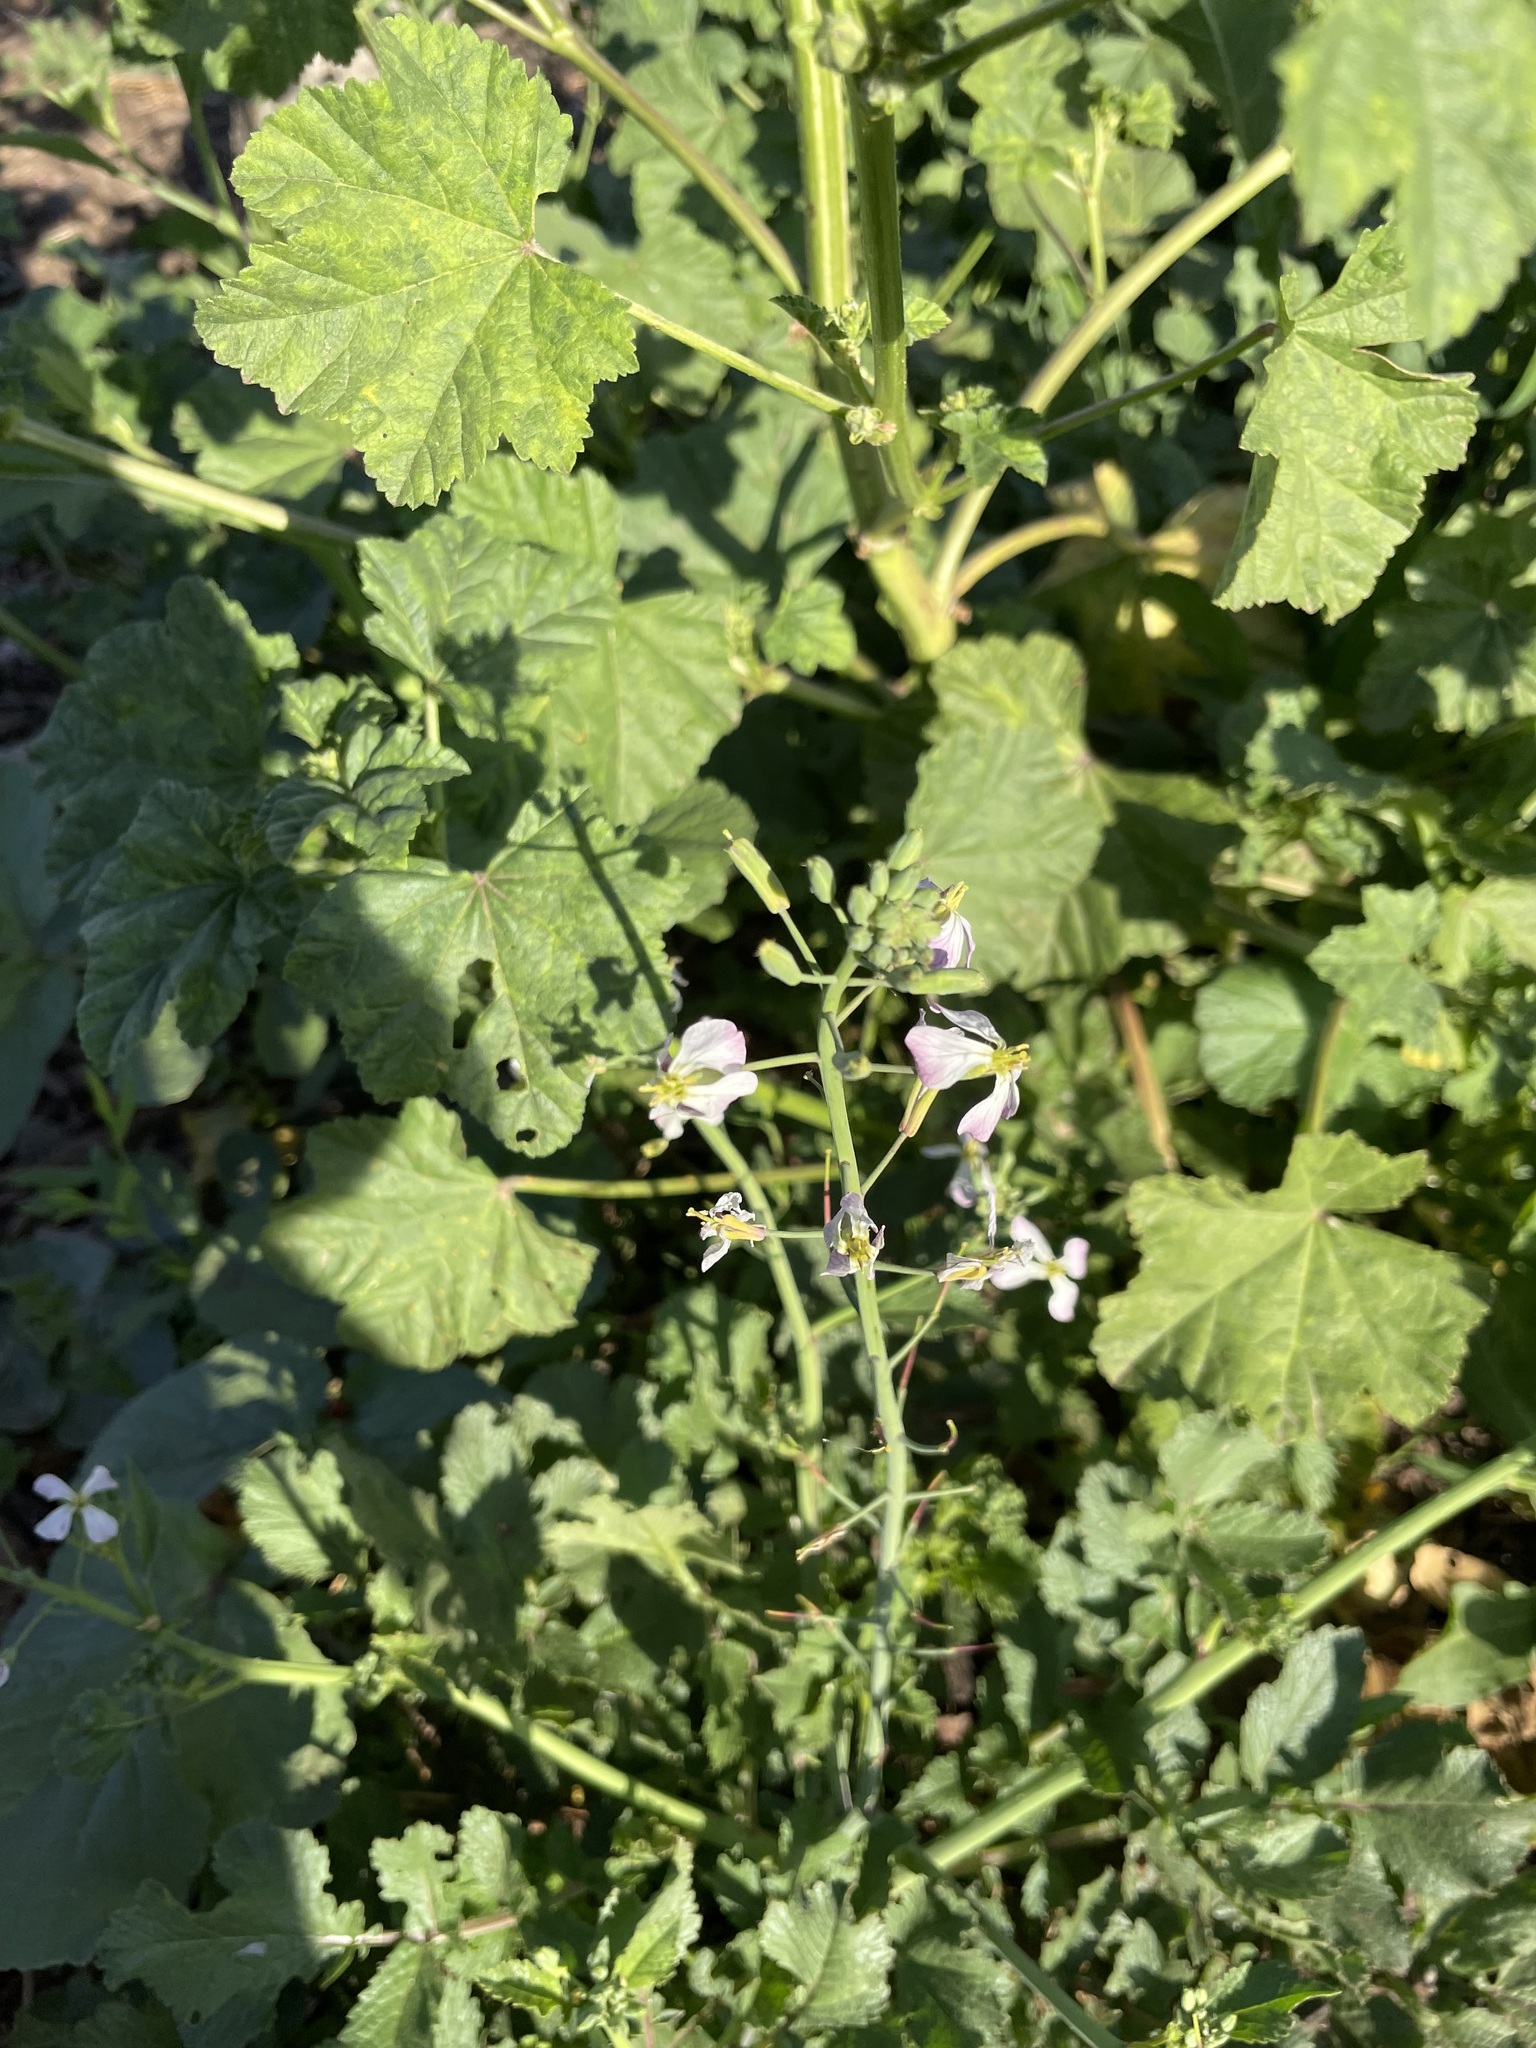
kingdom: Plantae
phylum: Tracheophyta
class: Magnoliopsida
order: Brassicales
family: Brassicaceae
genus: Raphanus
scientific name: Raphanus sativus
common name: Cultivated radish
